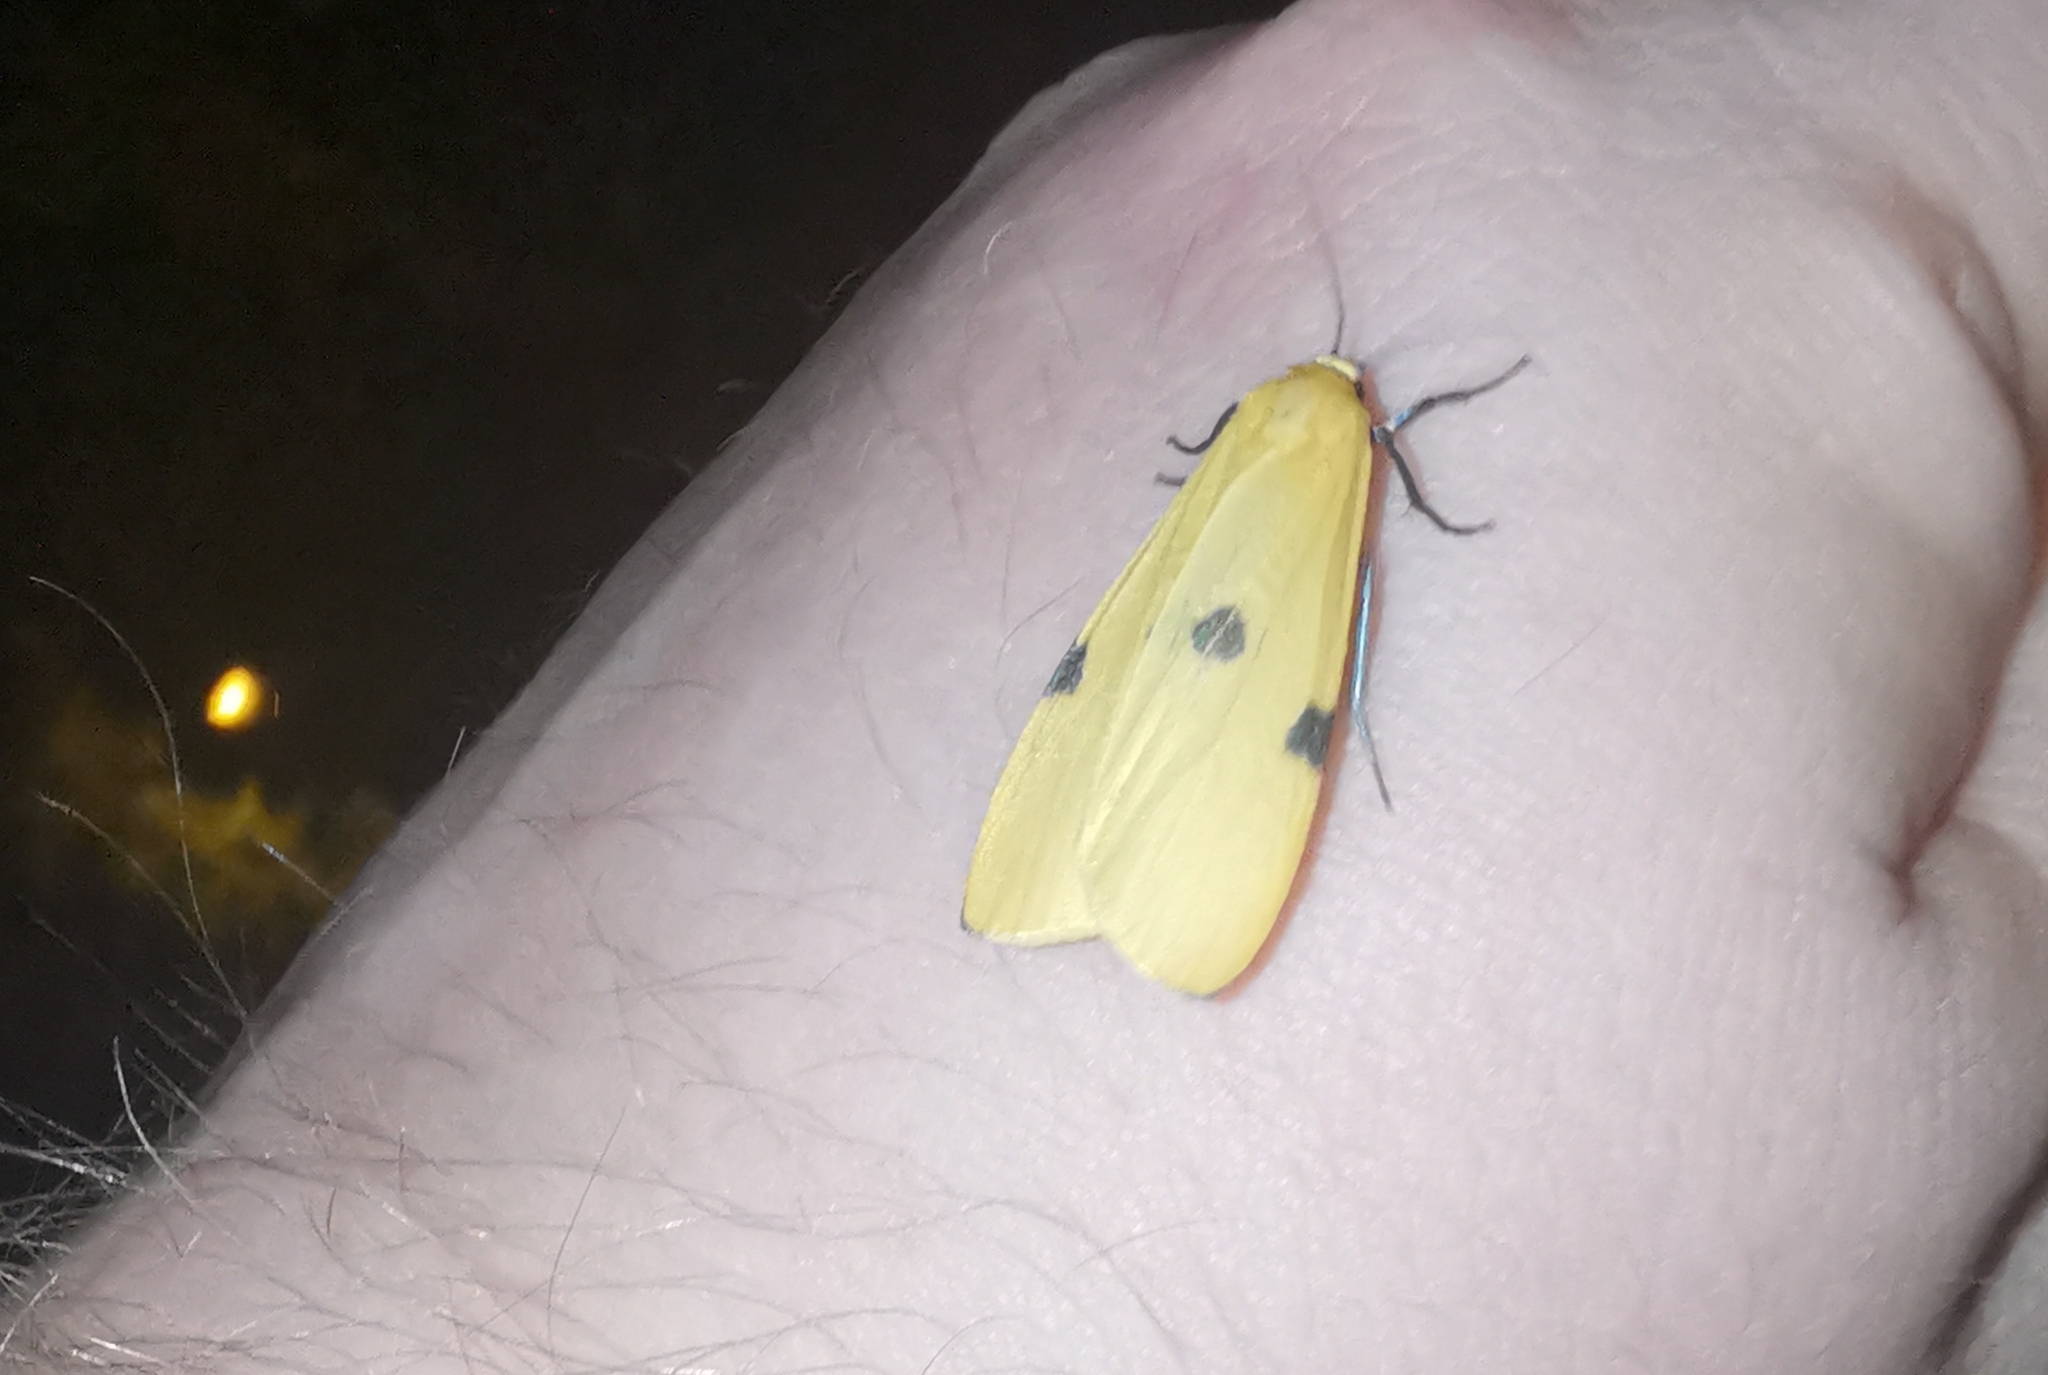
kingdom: Animalia
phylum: Arthropoda
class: Insecta
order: Lepidoptera
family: Erebidae
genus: Lithosia
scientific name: Lithosia quadra
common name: Four-spotted footman
